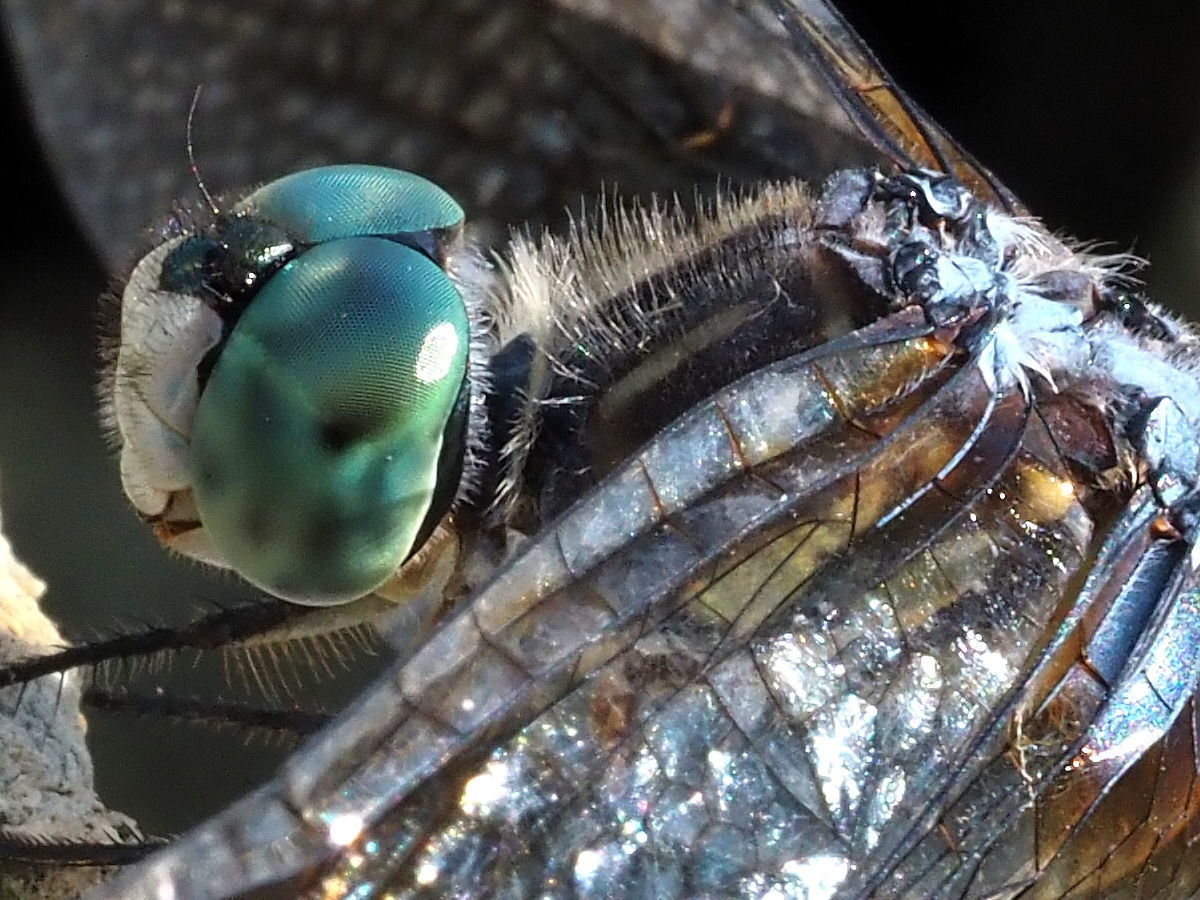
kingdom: Animalia
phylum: Arthropoda
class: Insecta
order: Odonata
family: Libellulidae
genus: Pachydiplax
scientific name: Pachydiplax longipennis
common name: Blue dasher
